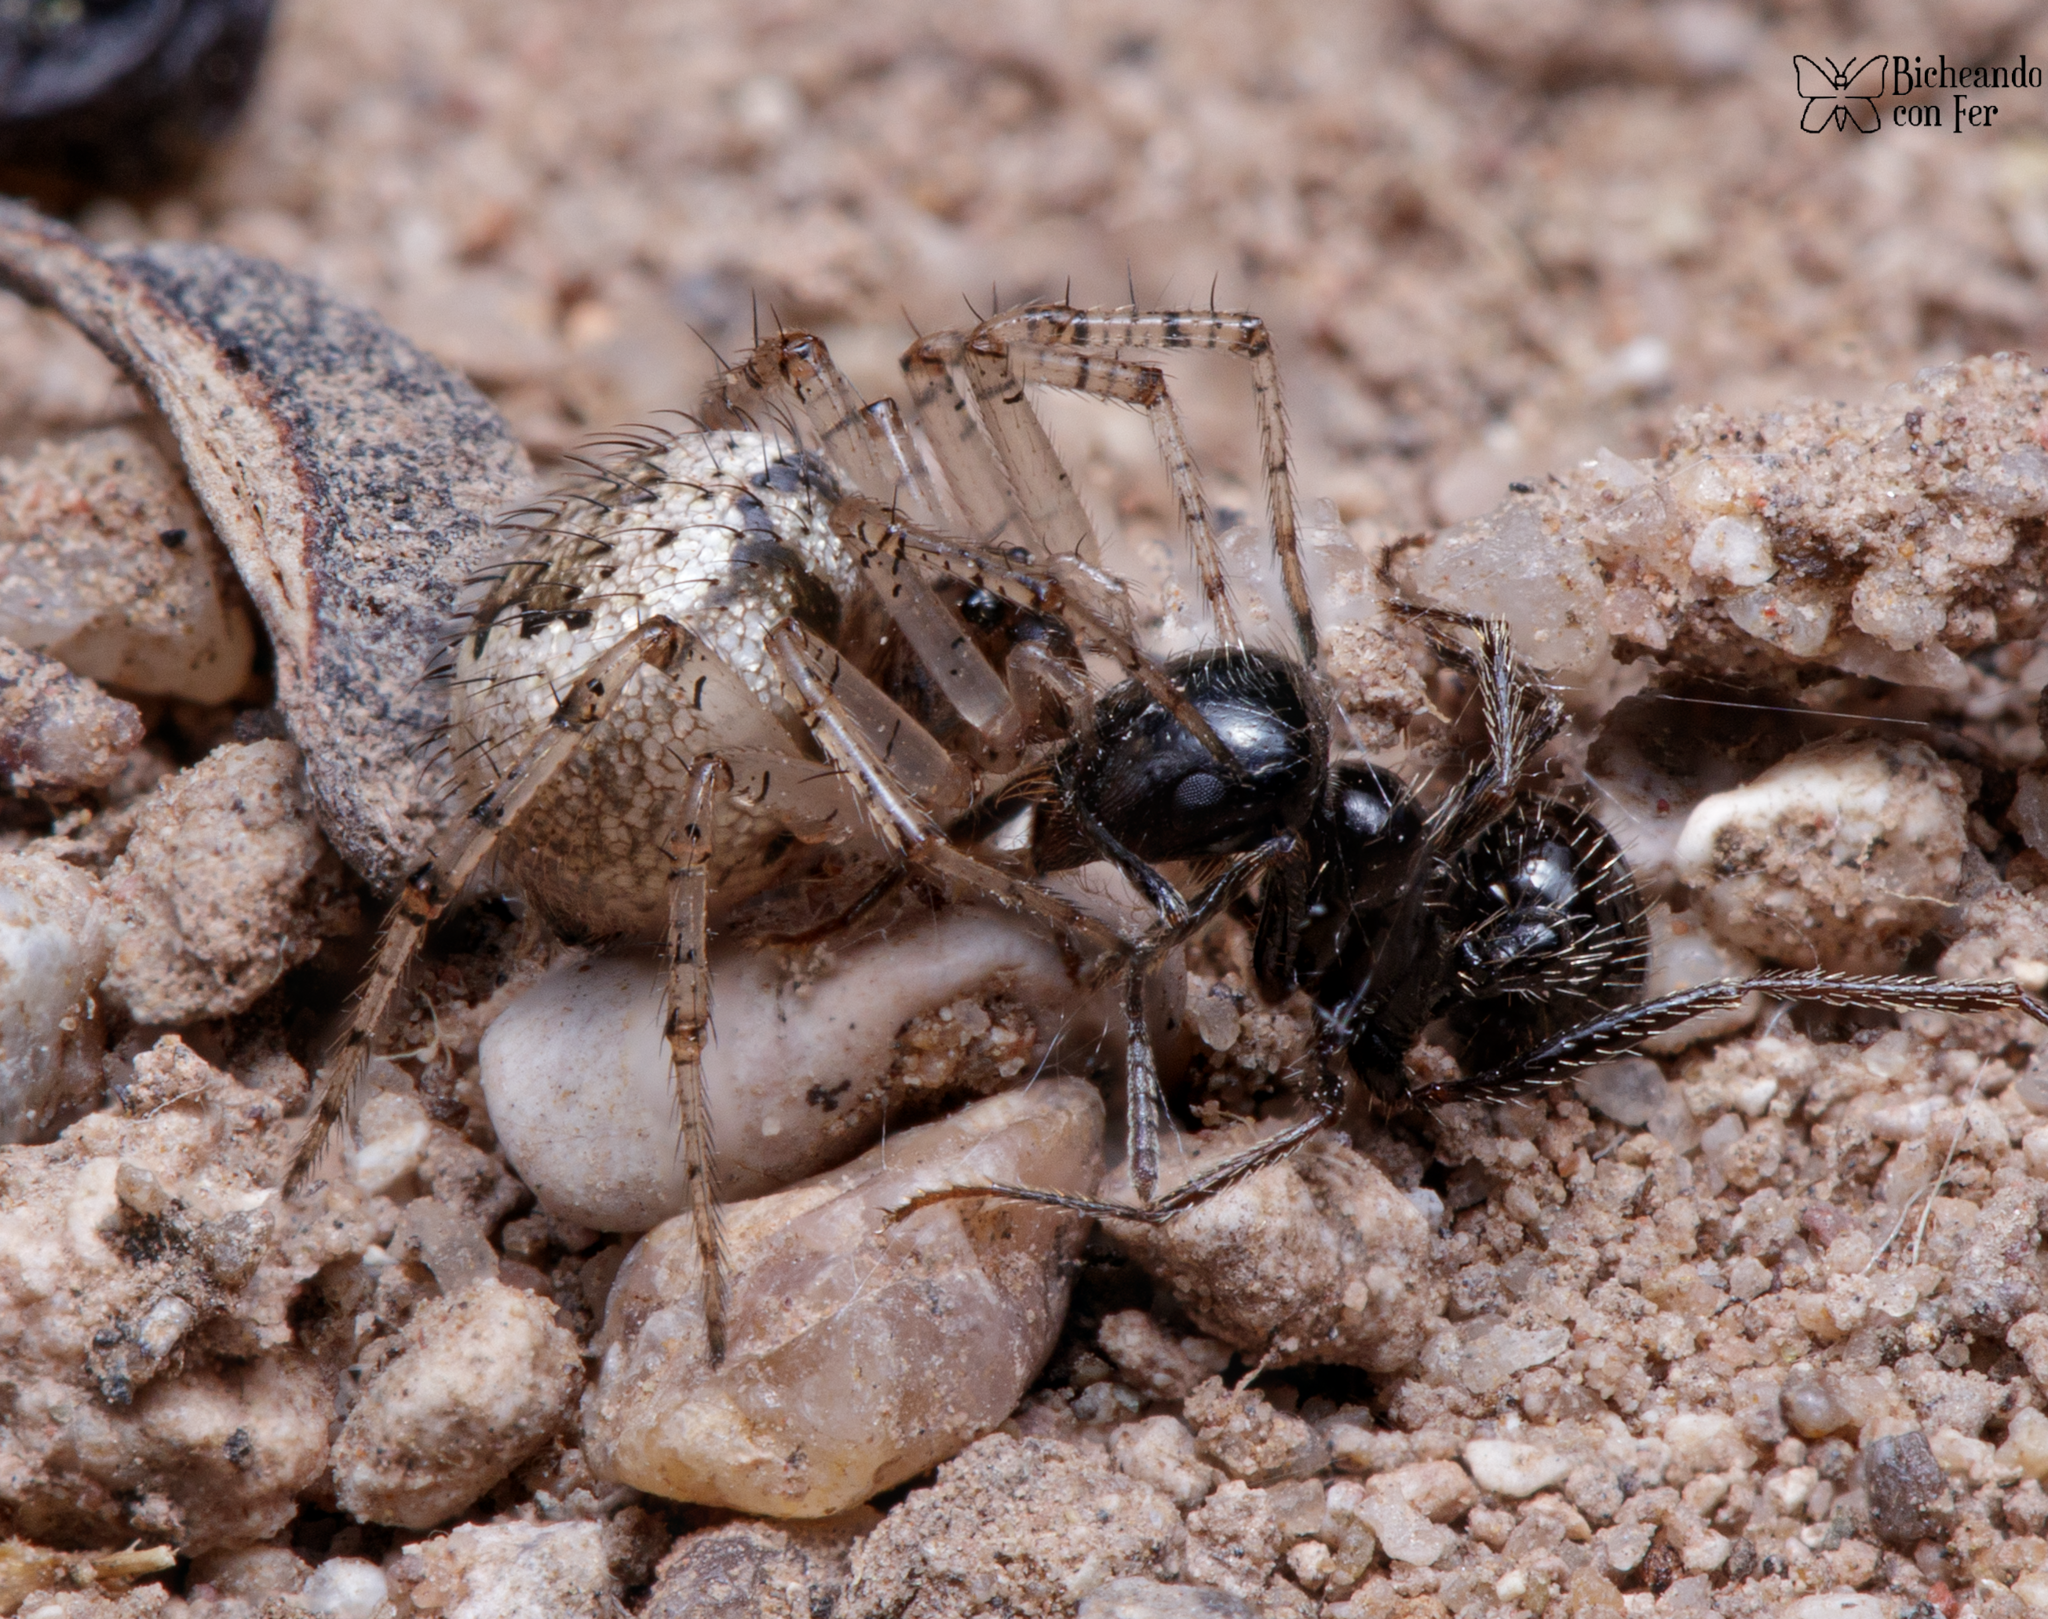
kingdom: Animalia
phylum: Arthropoda
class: Insecta
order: Hymenoptera
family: Formicidae
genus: Messor
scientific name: Messor pergandei
